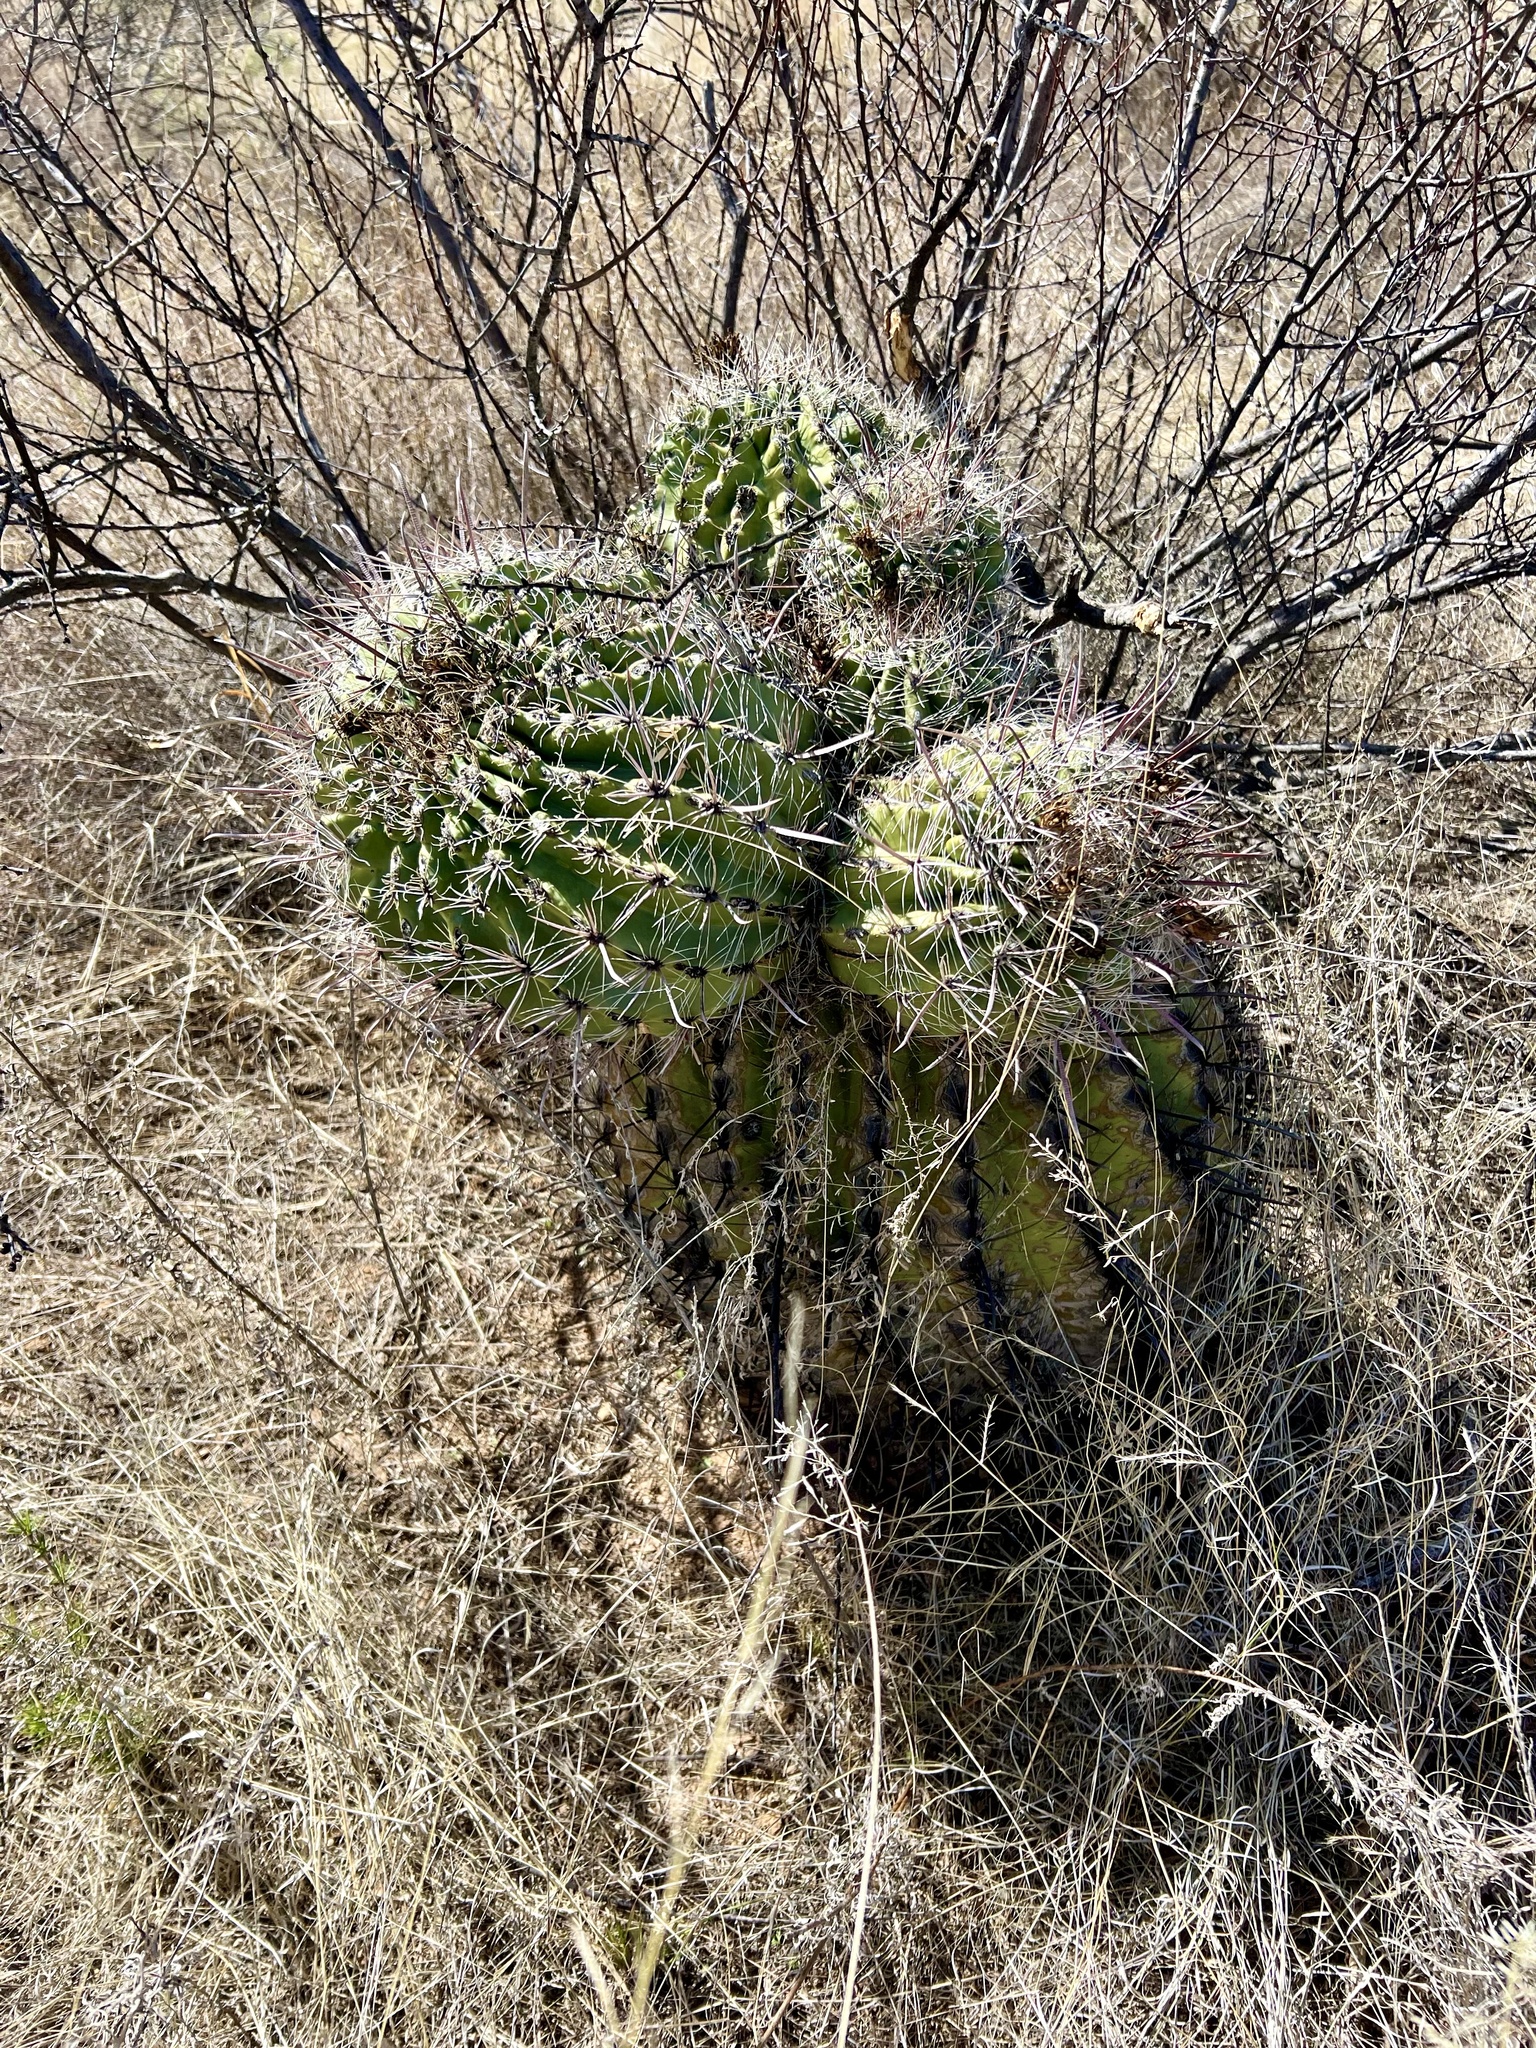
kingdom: Plantae
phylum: Tracheophyta
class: Magnoliopsida
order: Caryophyllales
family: Cactaceae
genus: Ferocactus
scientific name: Ferocactus wislizeni
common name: Candy barrel cactus
